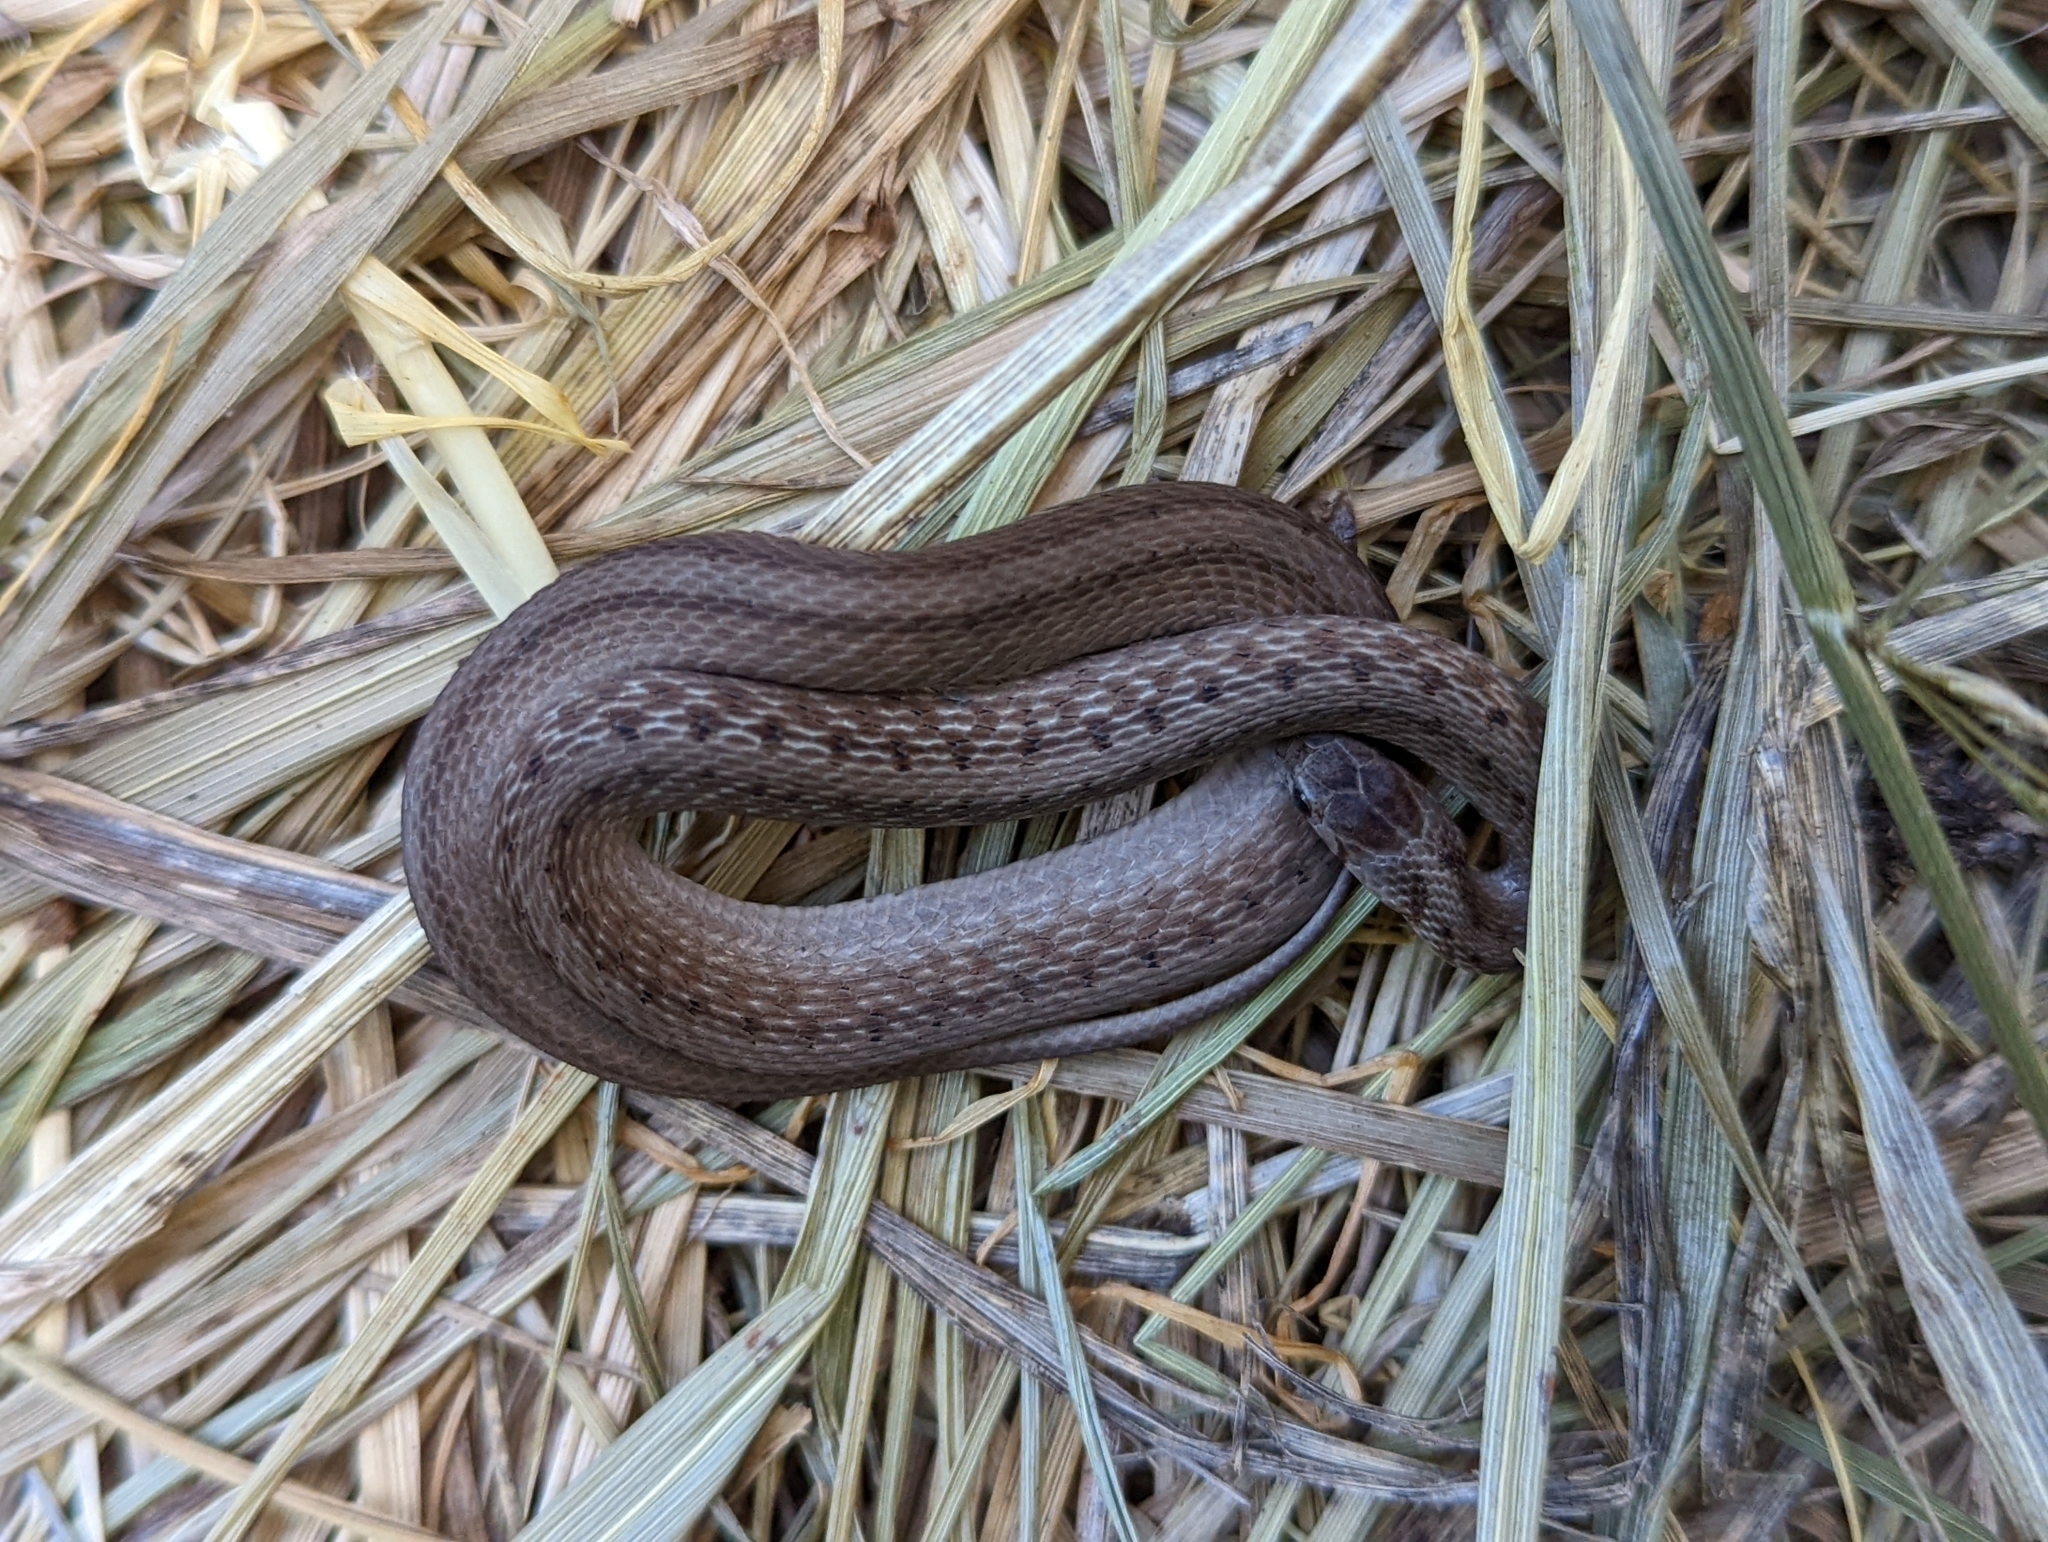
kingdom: Animalia
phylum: Chordata
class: Squamata
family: Colubridae
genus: Storeria
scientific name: Storeria dekayi
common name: (dekay’s) brown snake
